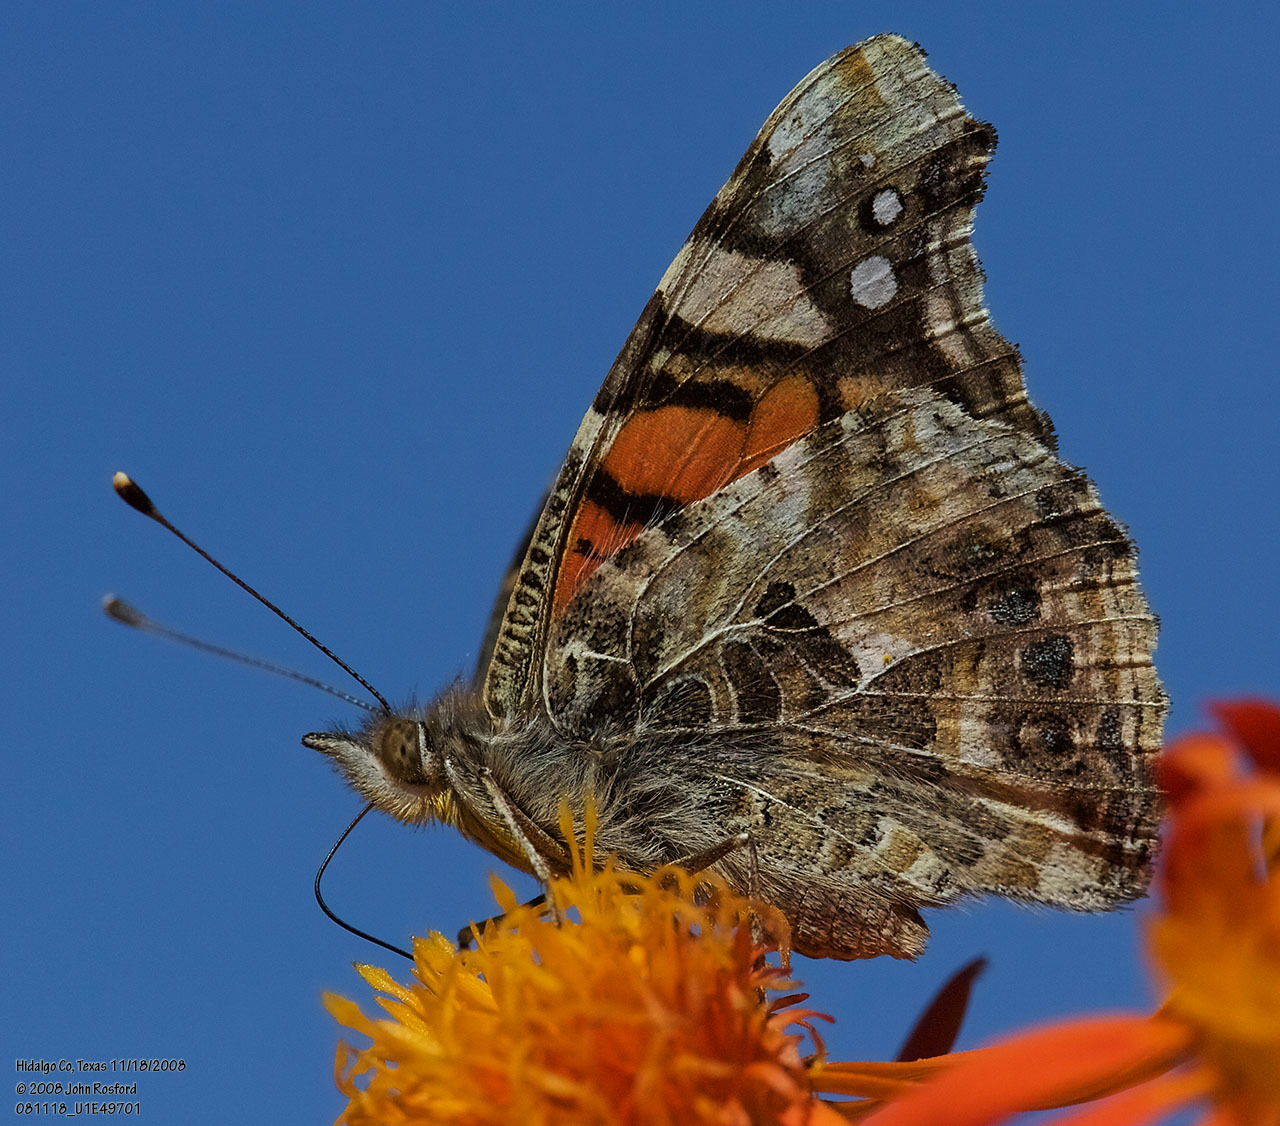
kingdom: Animalia
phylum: Arthropoda
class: Insecta
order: Lepidoptera
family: Nymphalidae
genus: Vanessa
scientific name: Vanessa annabella
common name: West coast lady
